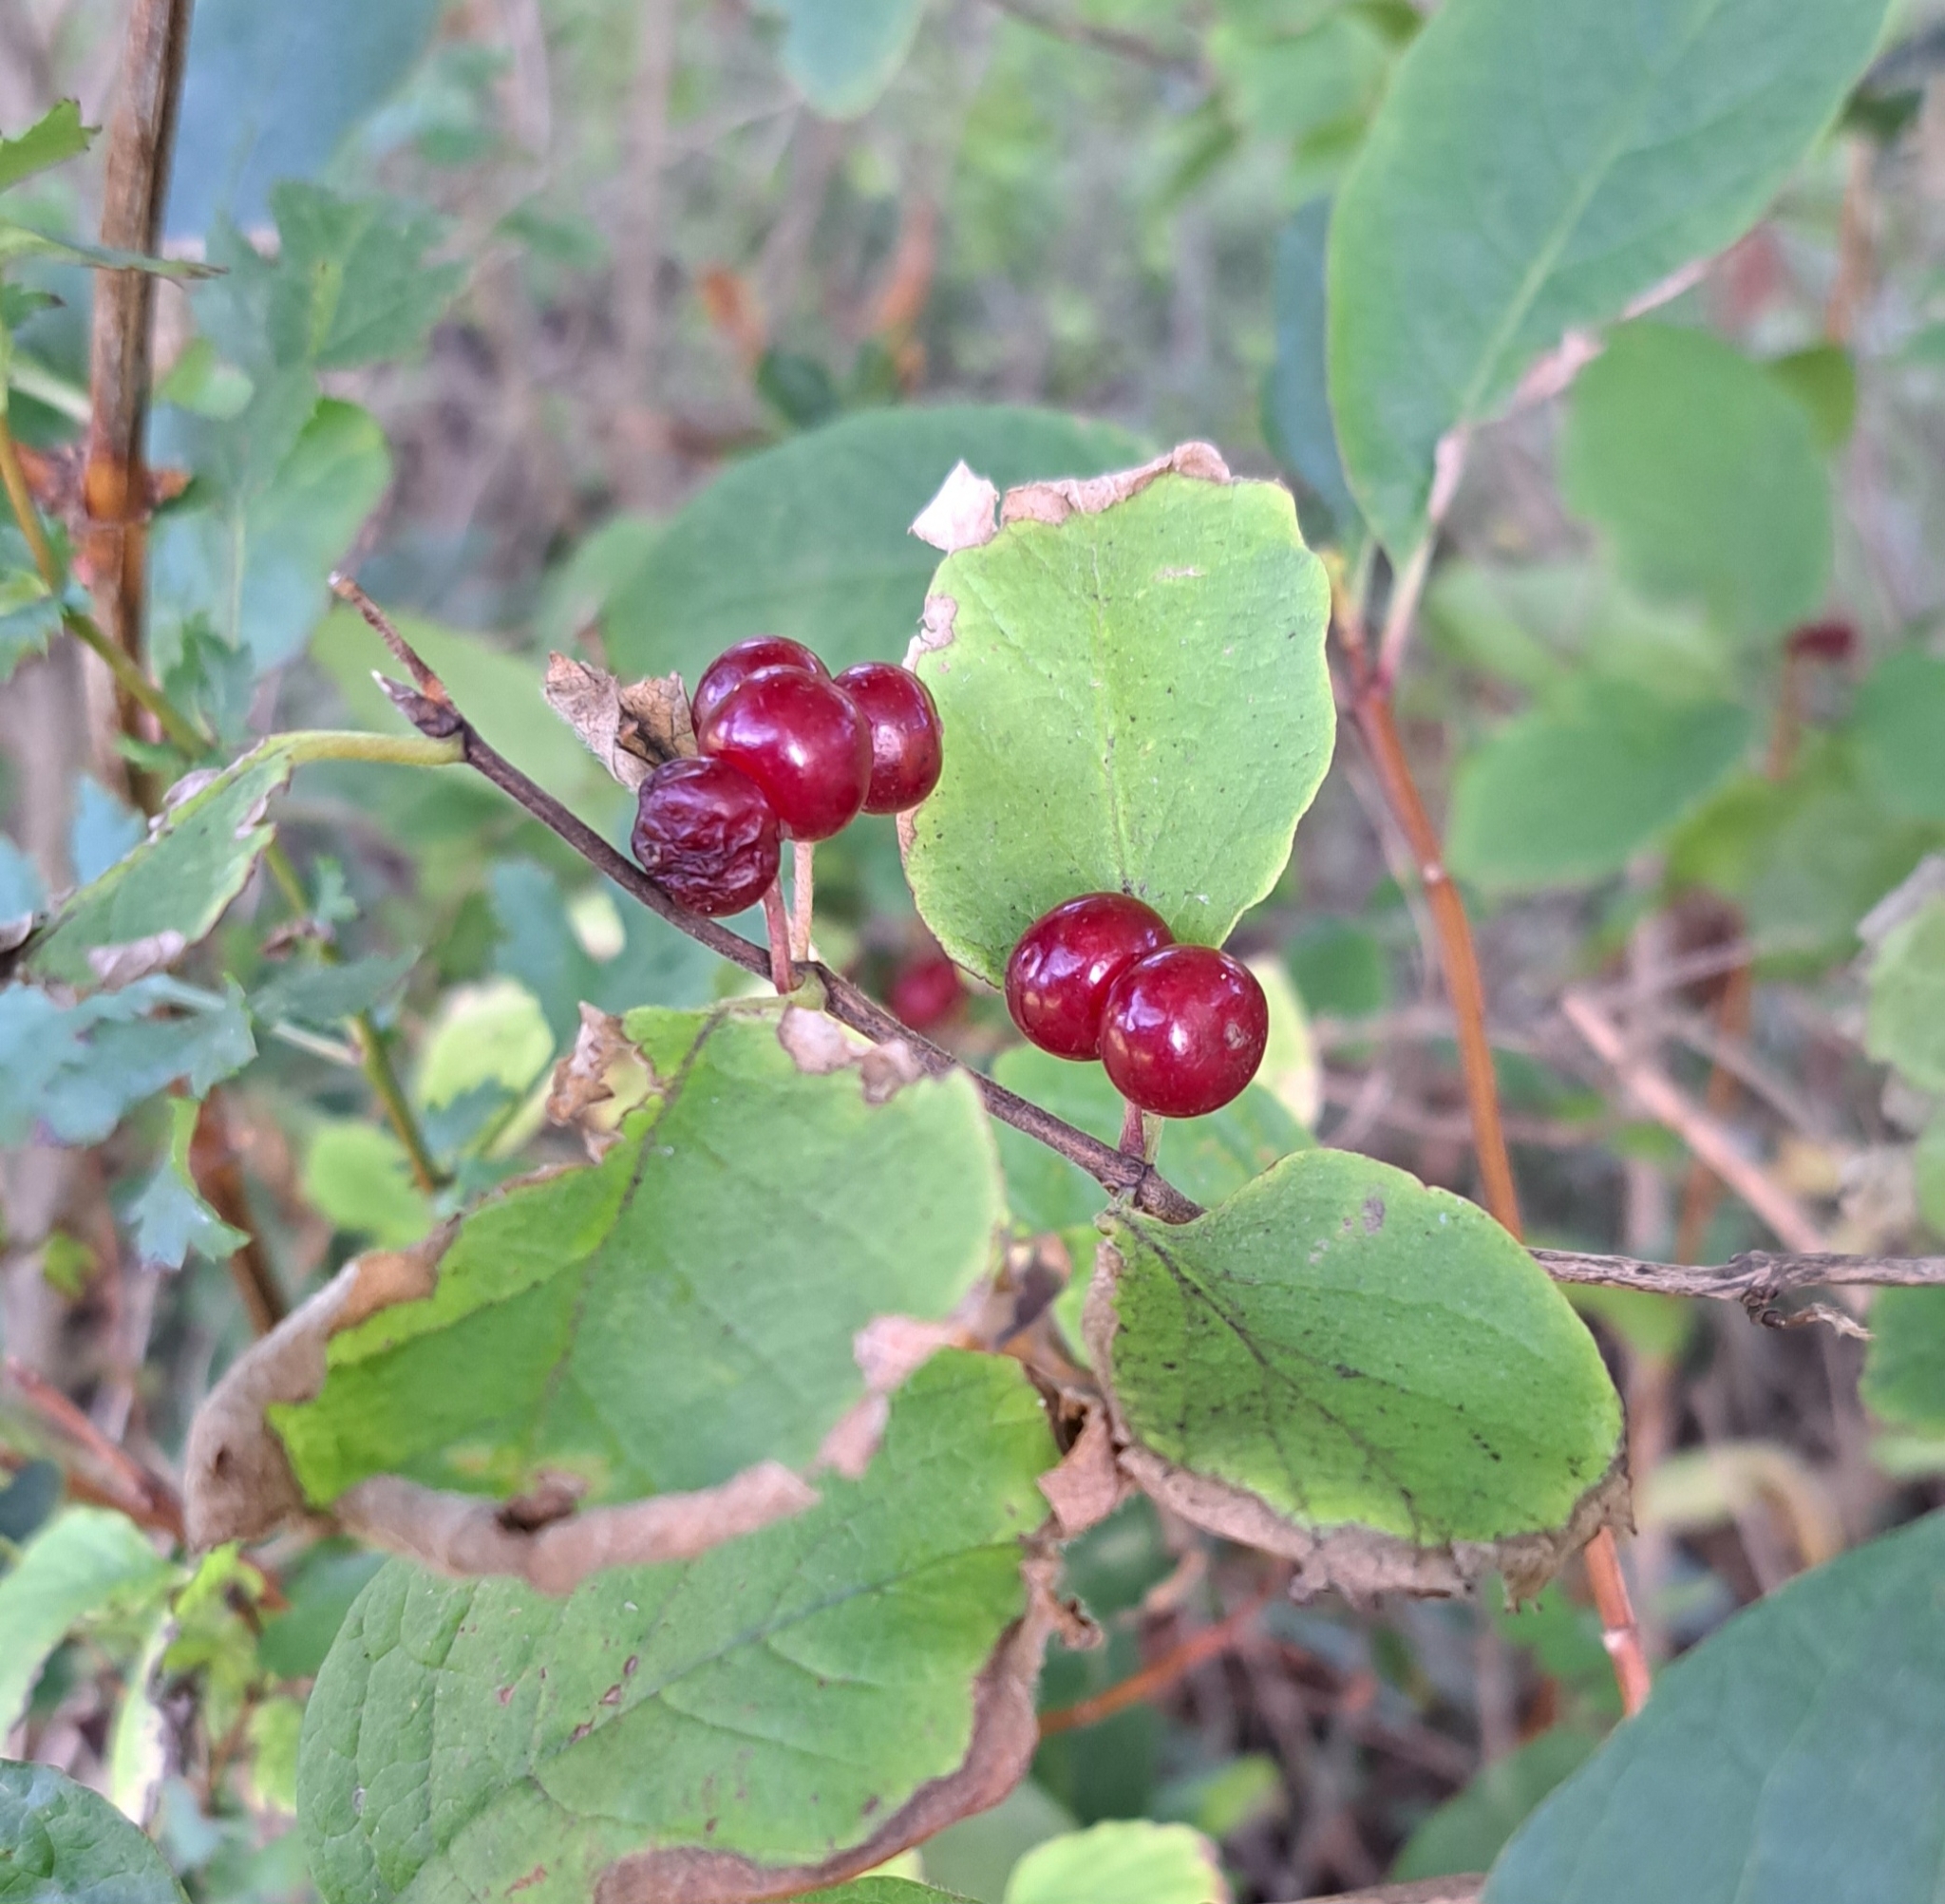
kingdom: Plantae
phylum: Tracheophyta
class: Magnoliopsida
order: Dipsacales
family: Caprifoliaceae
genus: Lonicera
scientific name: Lonicera xylosteum
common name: Fly honeysuckle
